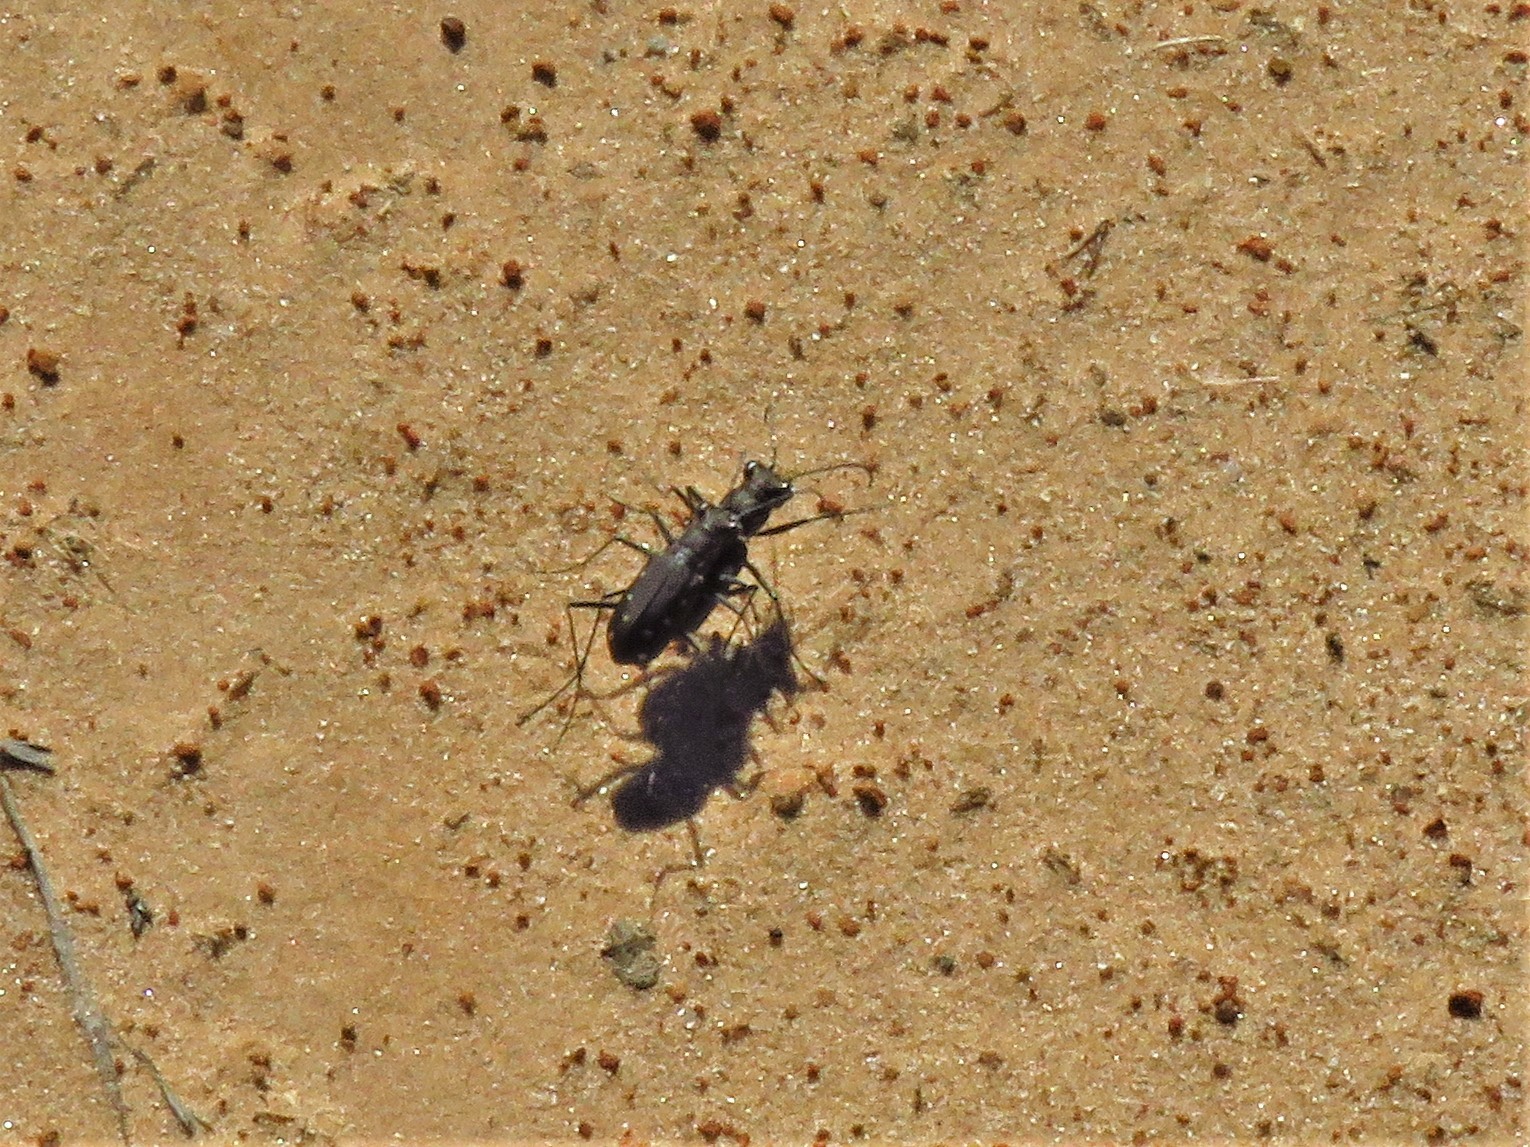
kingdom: Animalia
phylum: Arthropoda
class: Insecta
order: Coleoptera
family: Carabidae
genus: Cicindela
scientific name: Cicindela ocellata
